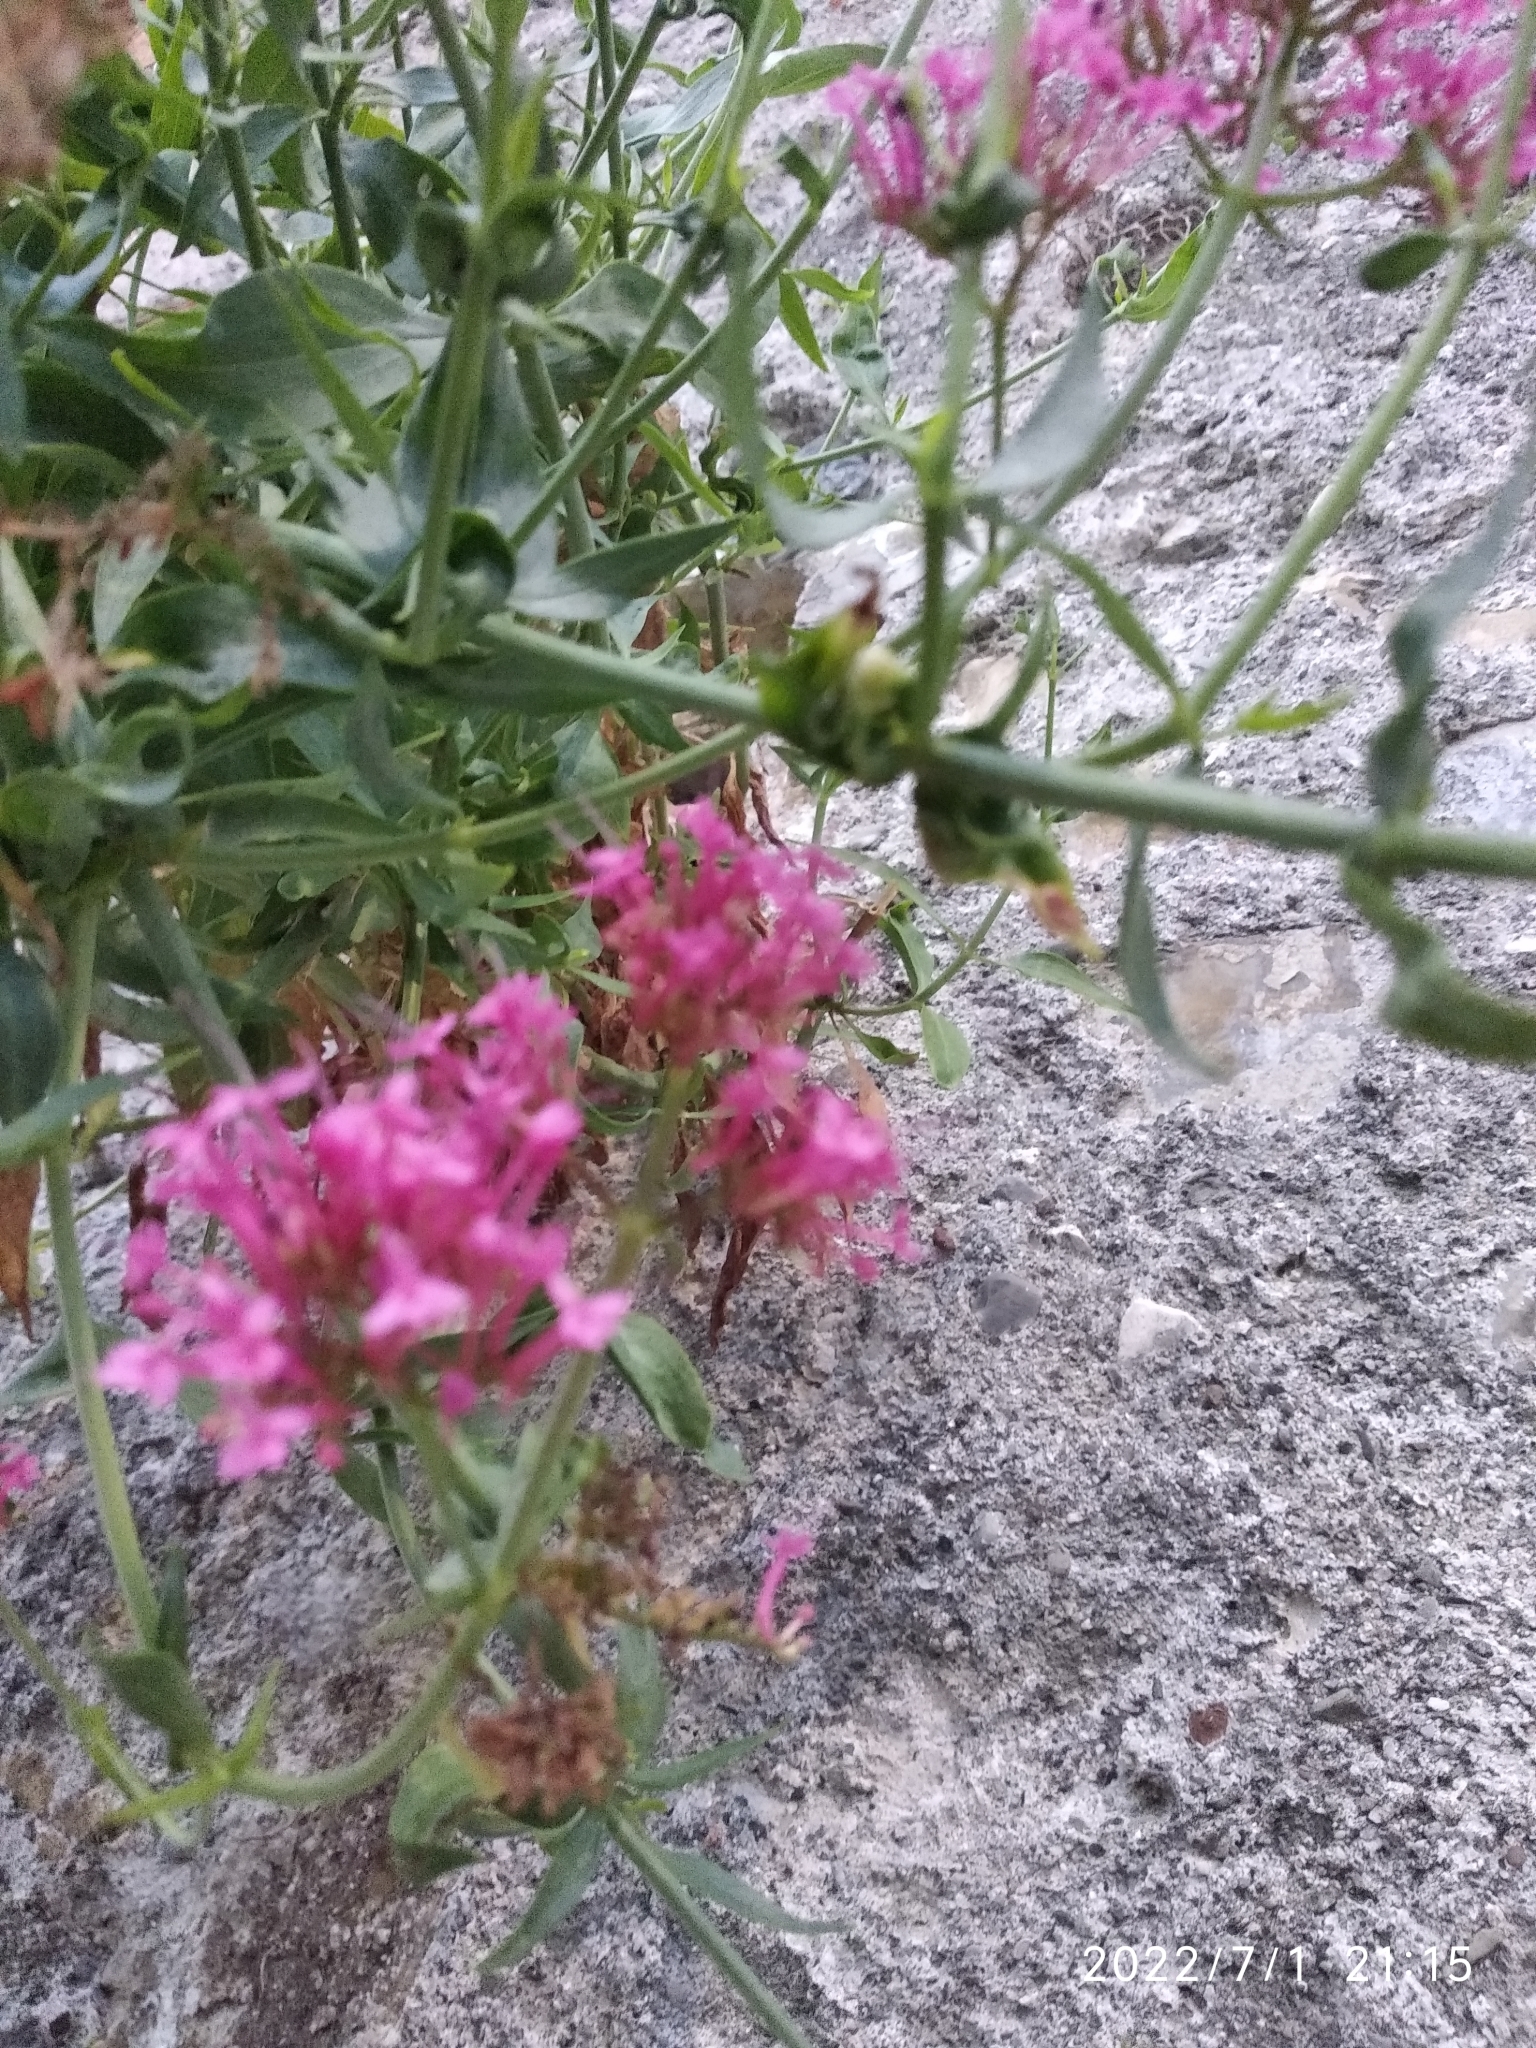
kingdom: Plantae
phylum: Tracheophyta
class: Magnoliopsida
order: Dipsacales
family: Caprifoliaceae
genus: Centranthus
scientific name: Centranthus ruber
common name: Red valerian
